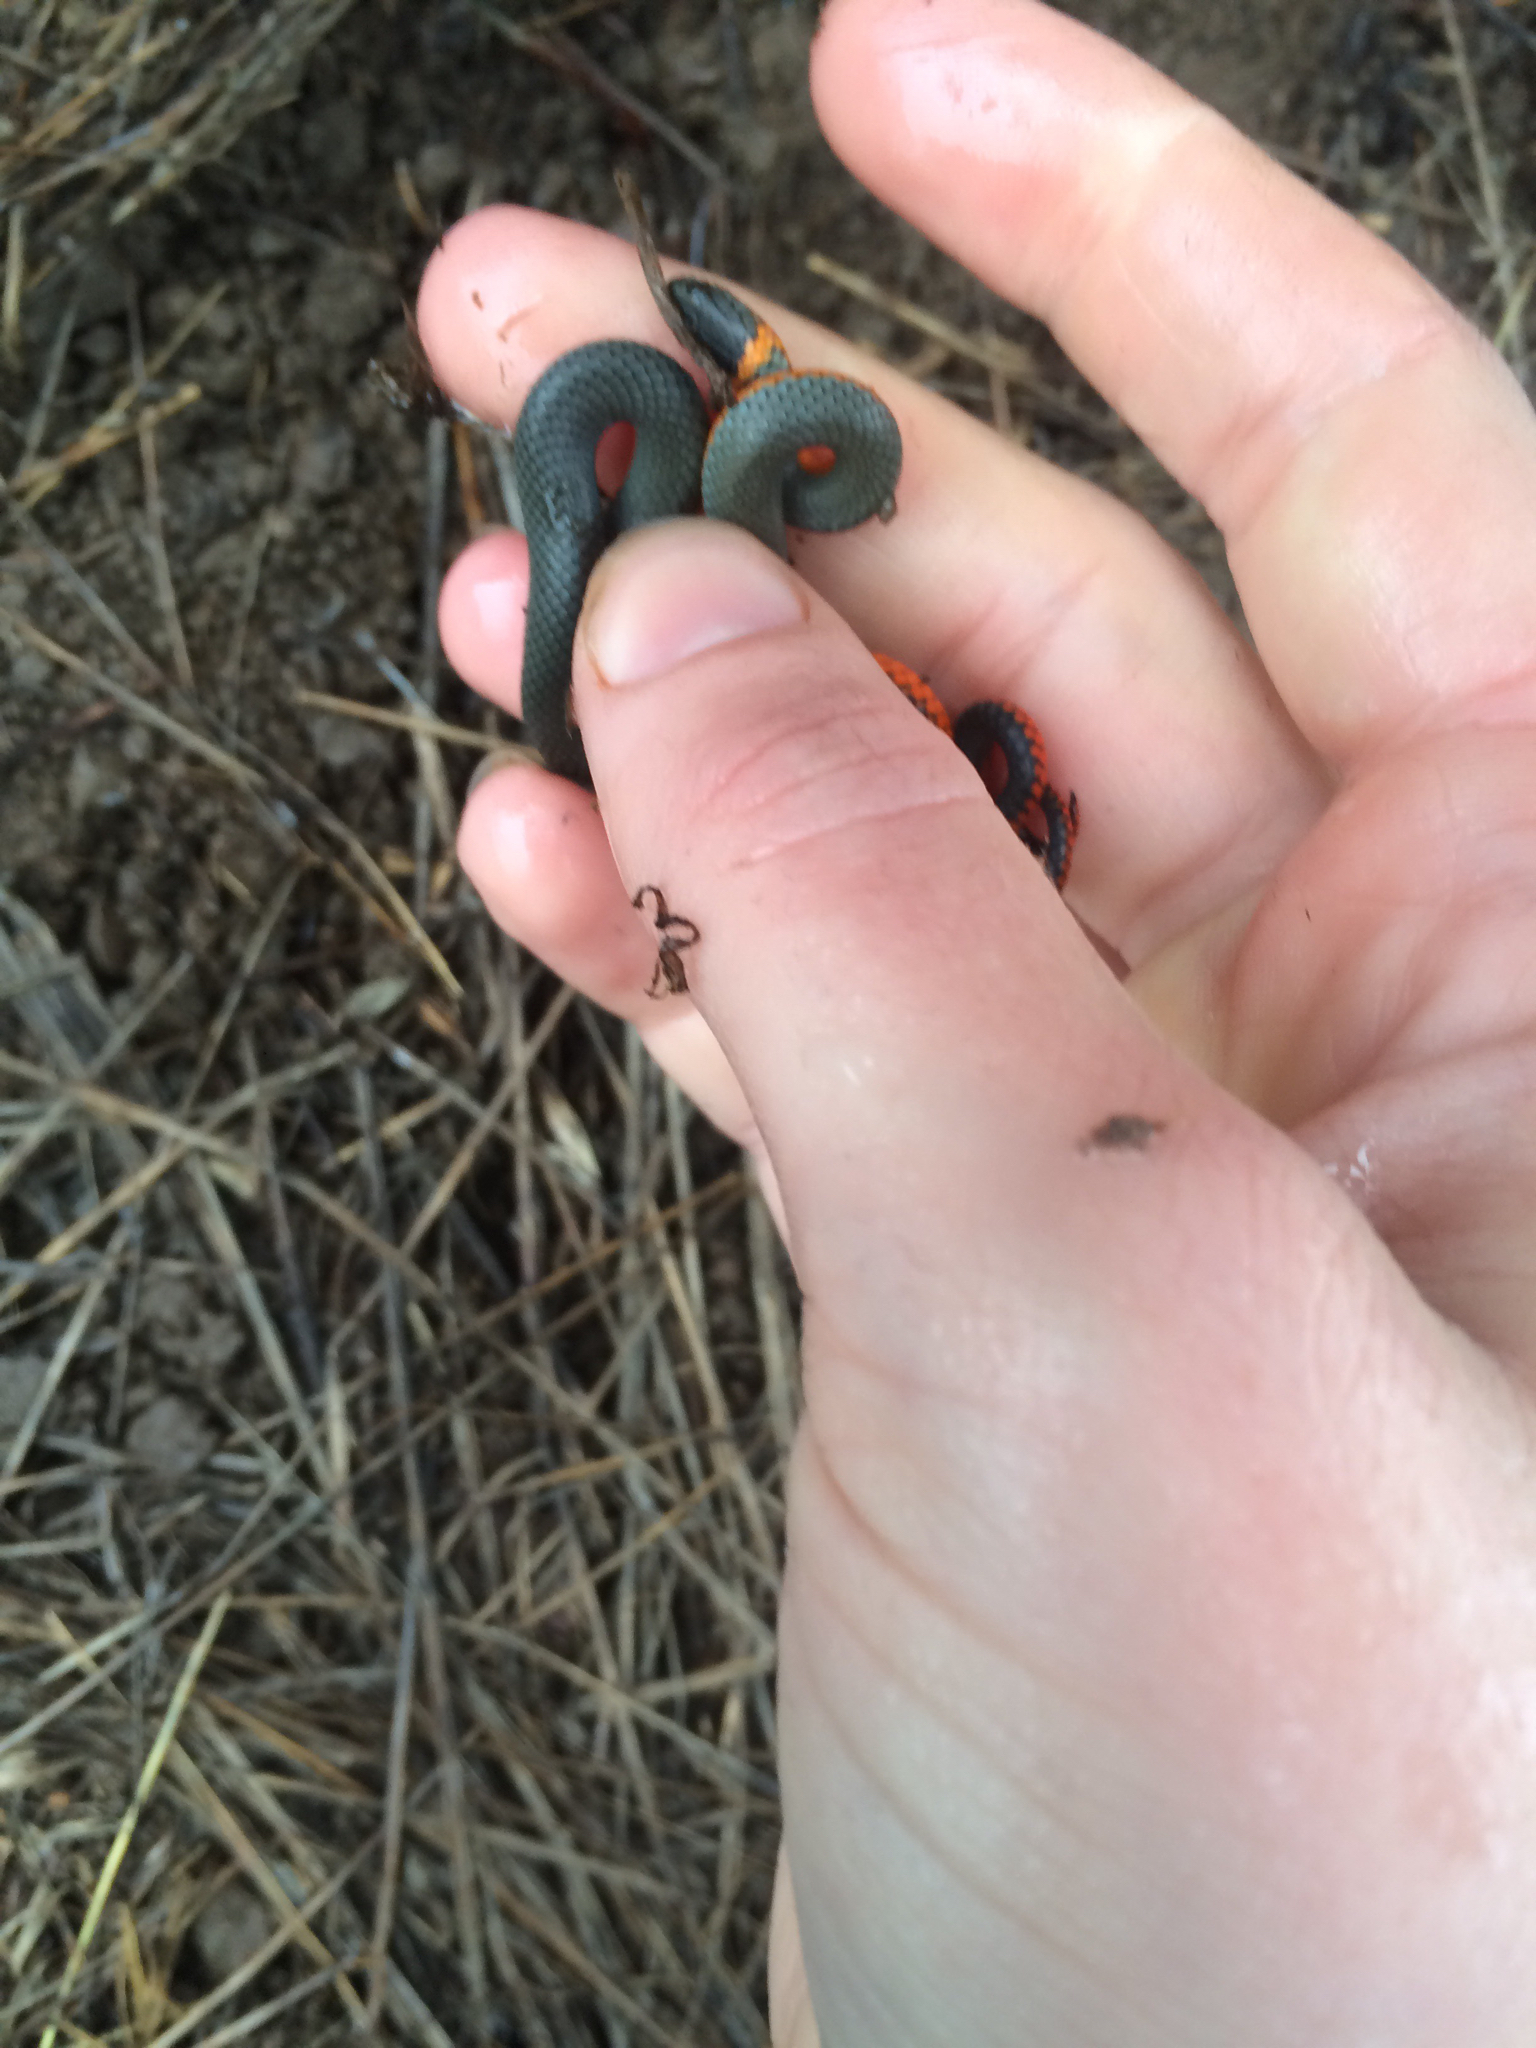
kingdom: Animalia
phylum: Chordata
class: Squamata
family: Colubridae
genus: Diadophis
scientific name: Diadophis punctatus
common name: Ringneck snake
